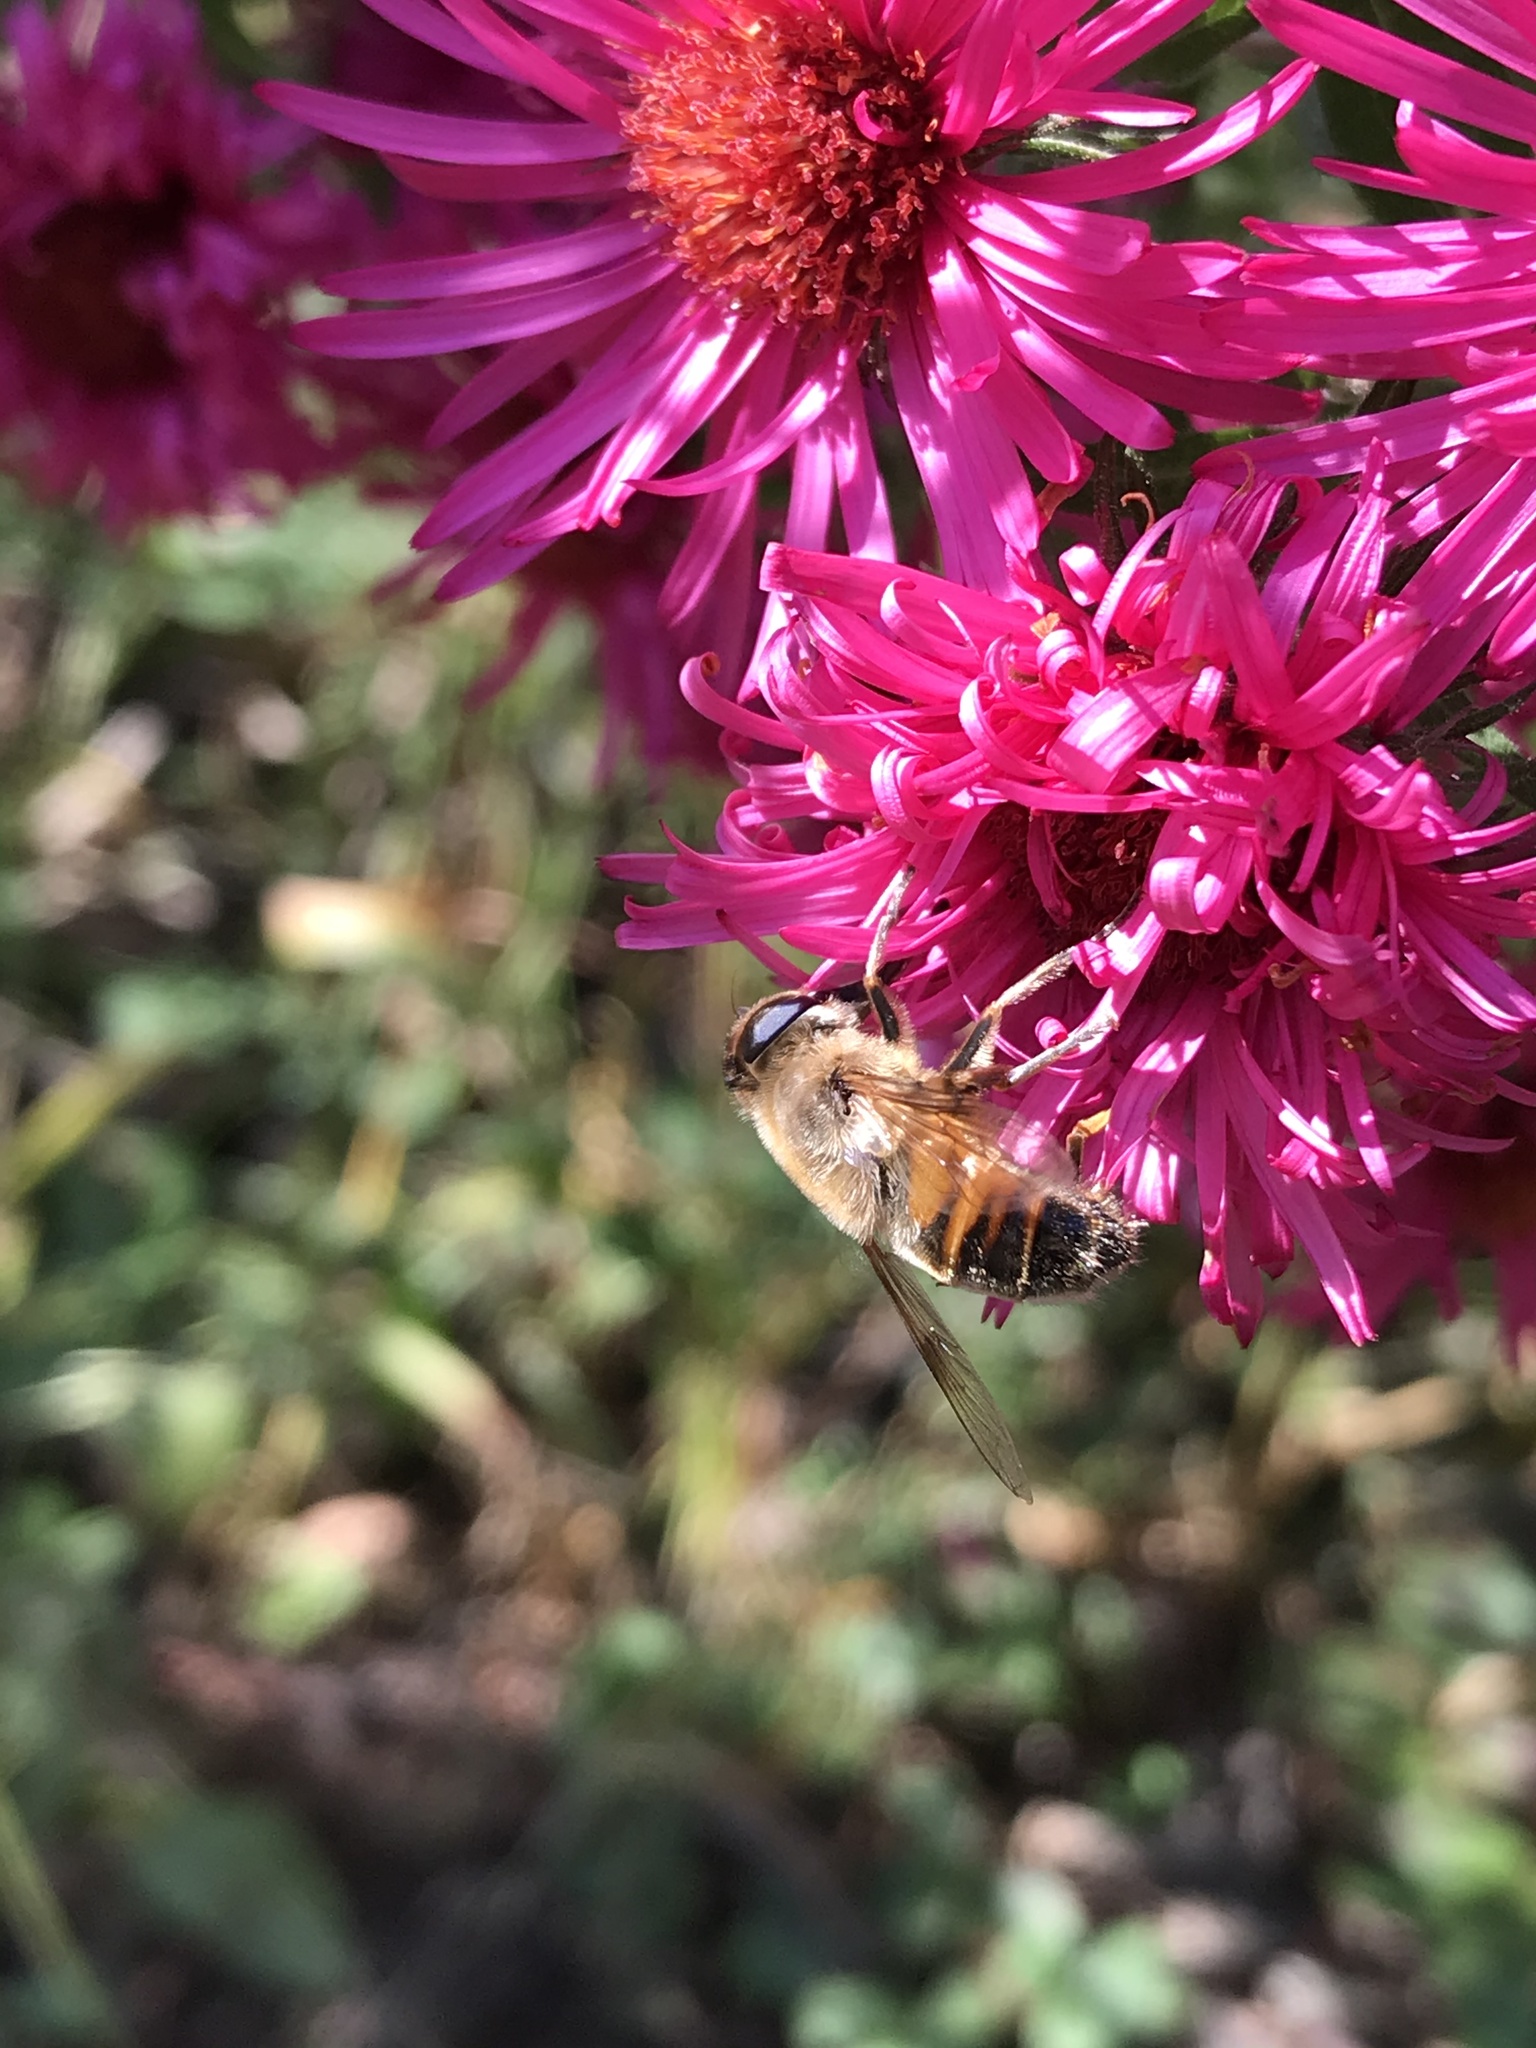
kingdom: Animalia
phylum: Arthropoda
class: Insecta
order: Diptera
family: Syrphidae
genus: Eristalis
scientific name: Eristalis tenax
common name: Drone fly
